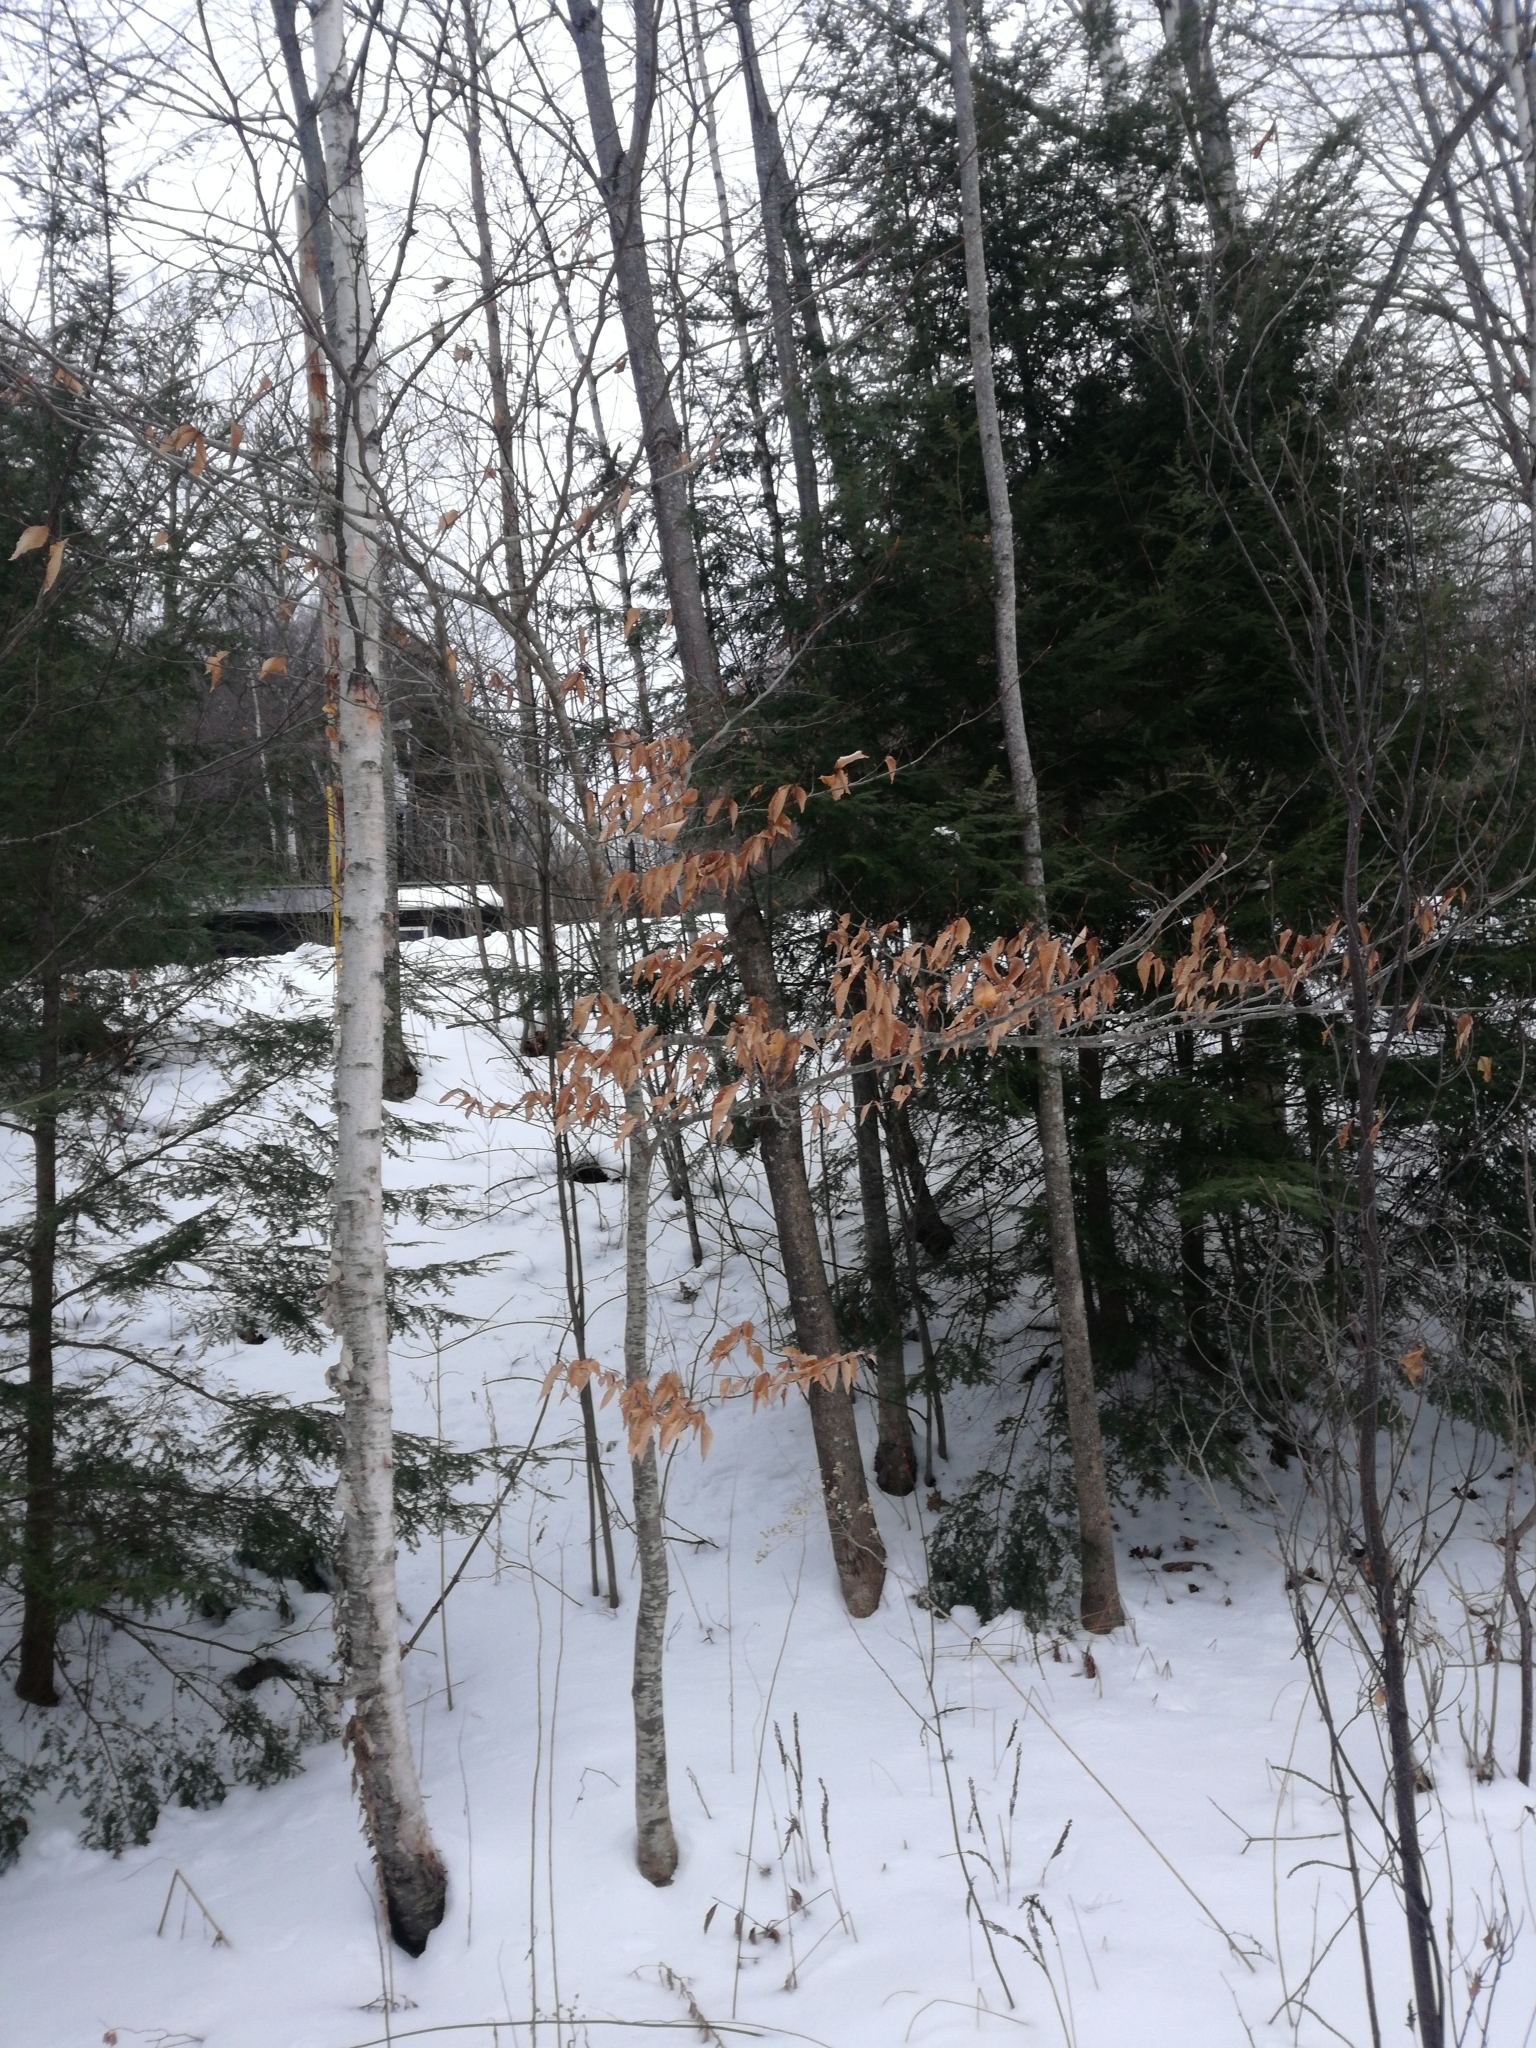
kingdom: Plantae
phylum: Tracheophyta
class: Magnoliopsida
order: Fagales
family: Fagaceae
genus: Fagus
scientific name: Fagus grandifolia
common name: American beech
